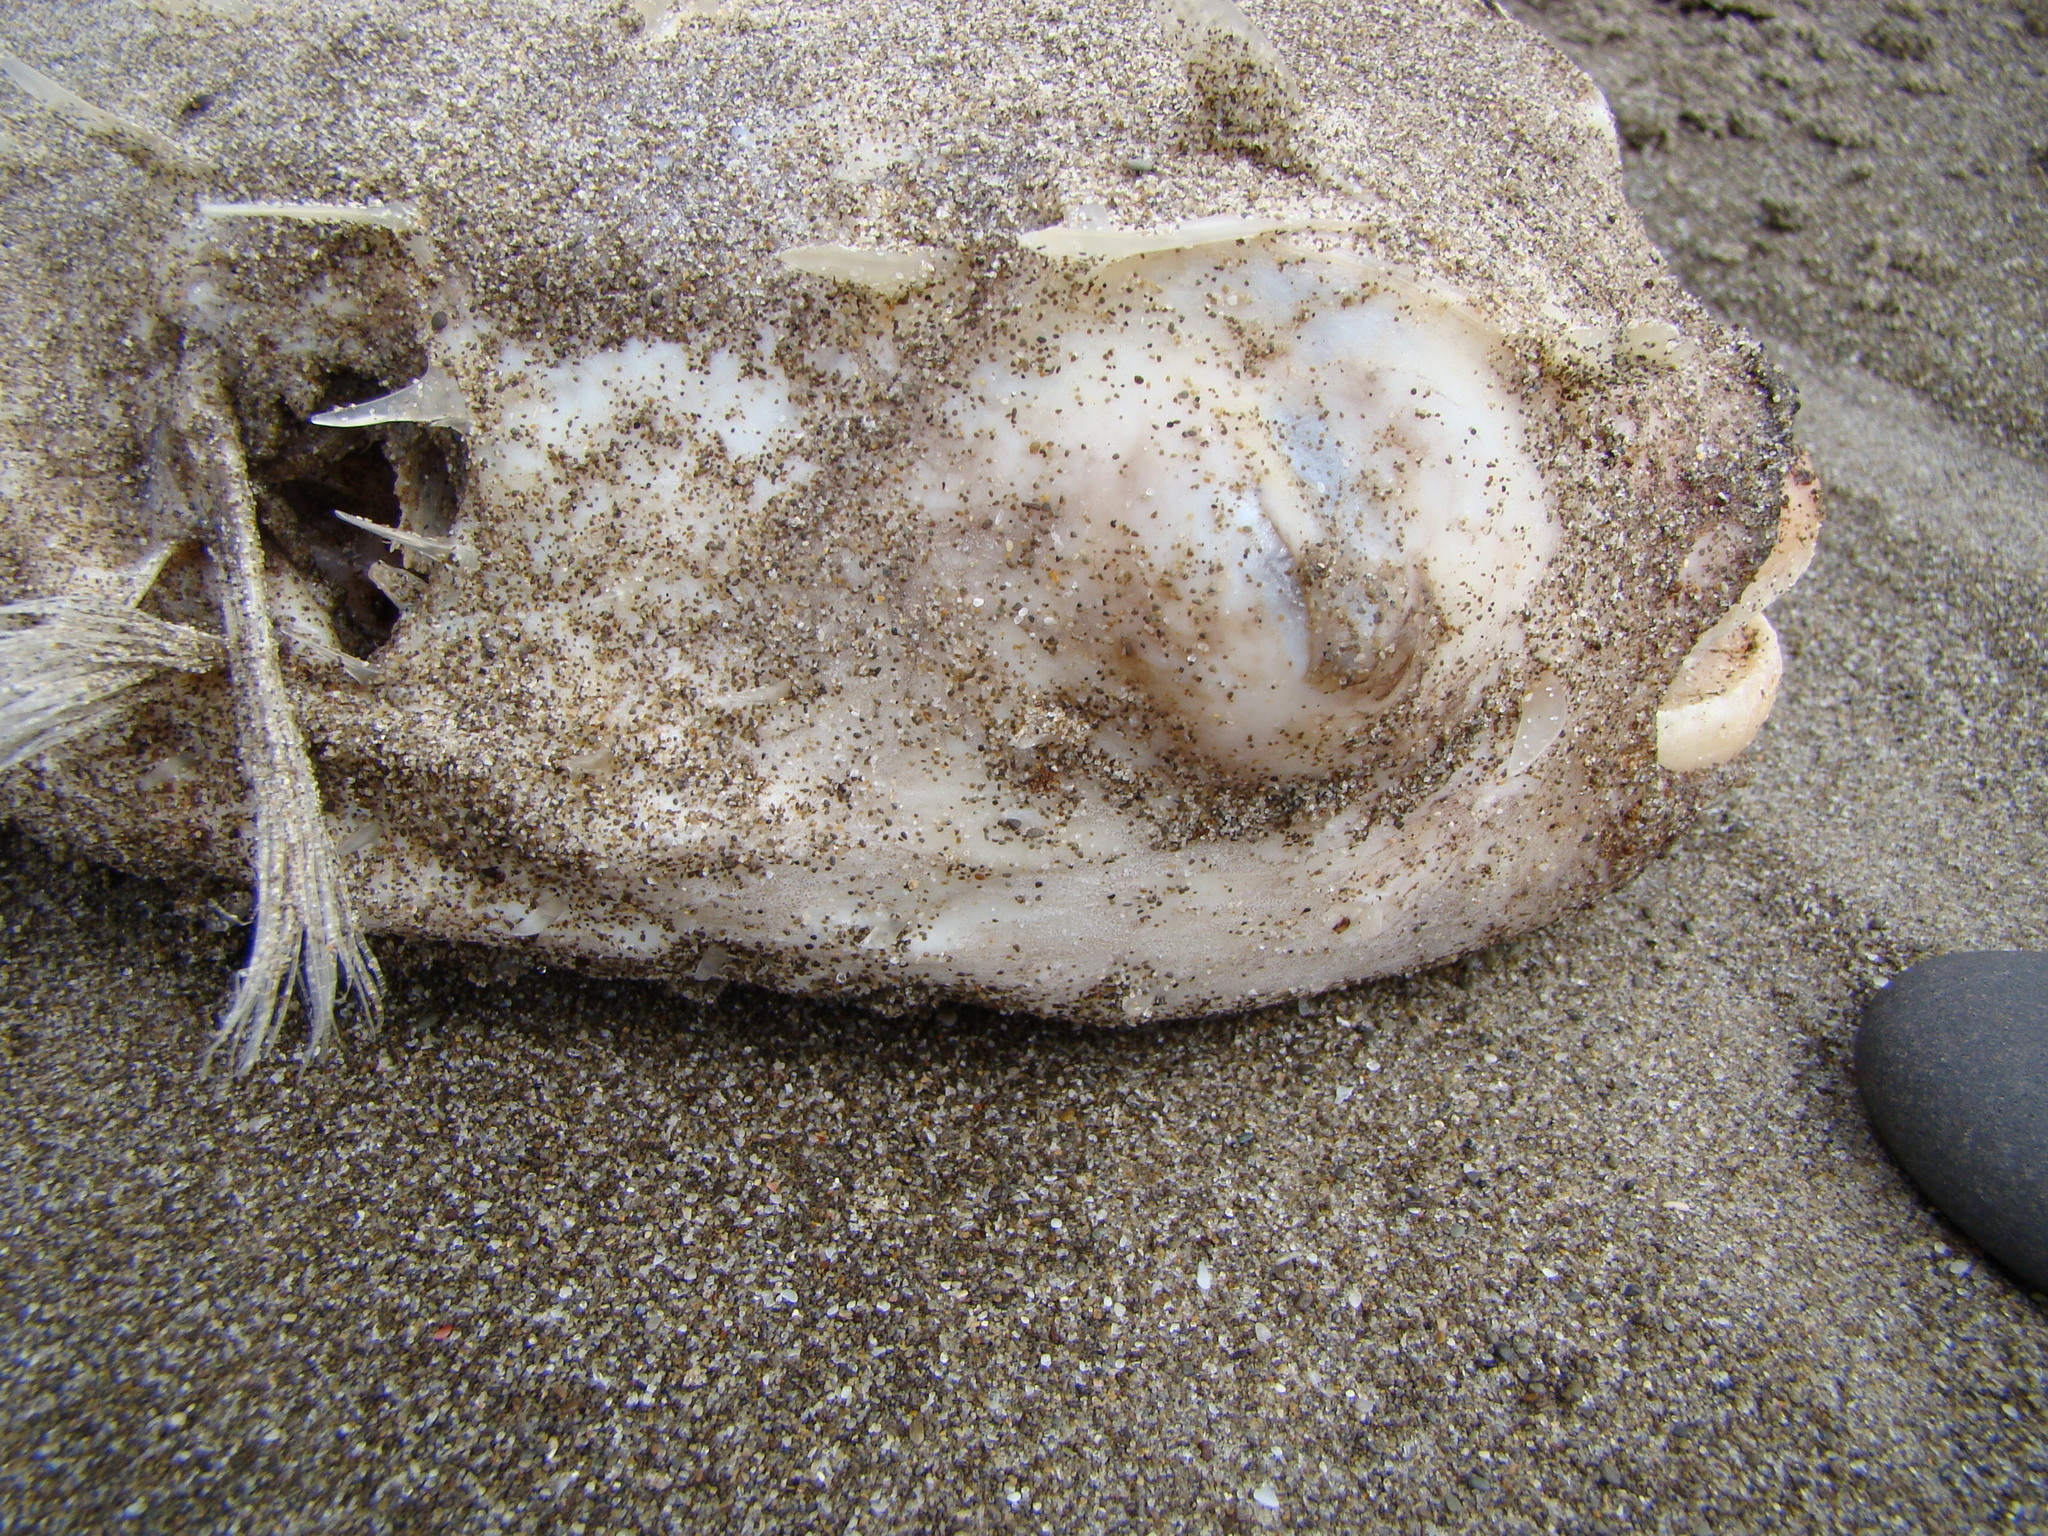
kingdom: Animalia
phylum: Chordata
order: Tetraodontiformes
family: Diodontidae
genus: Allomycterus
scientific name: Allomycterus pilatus
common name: No common name
